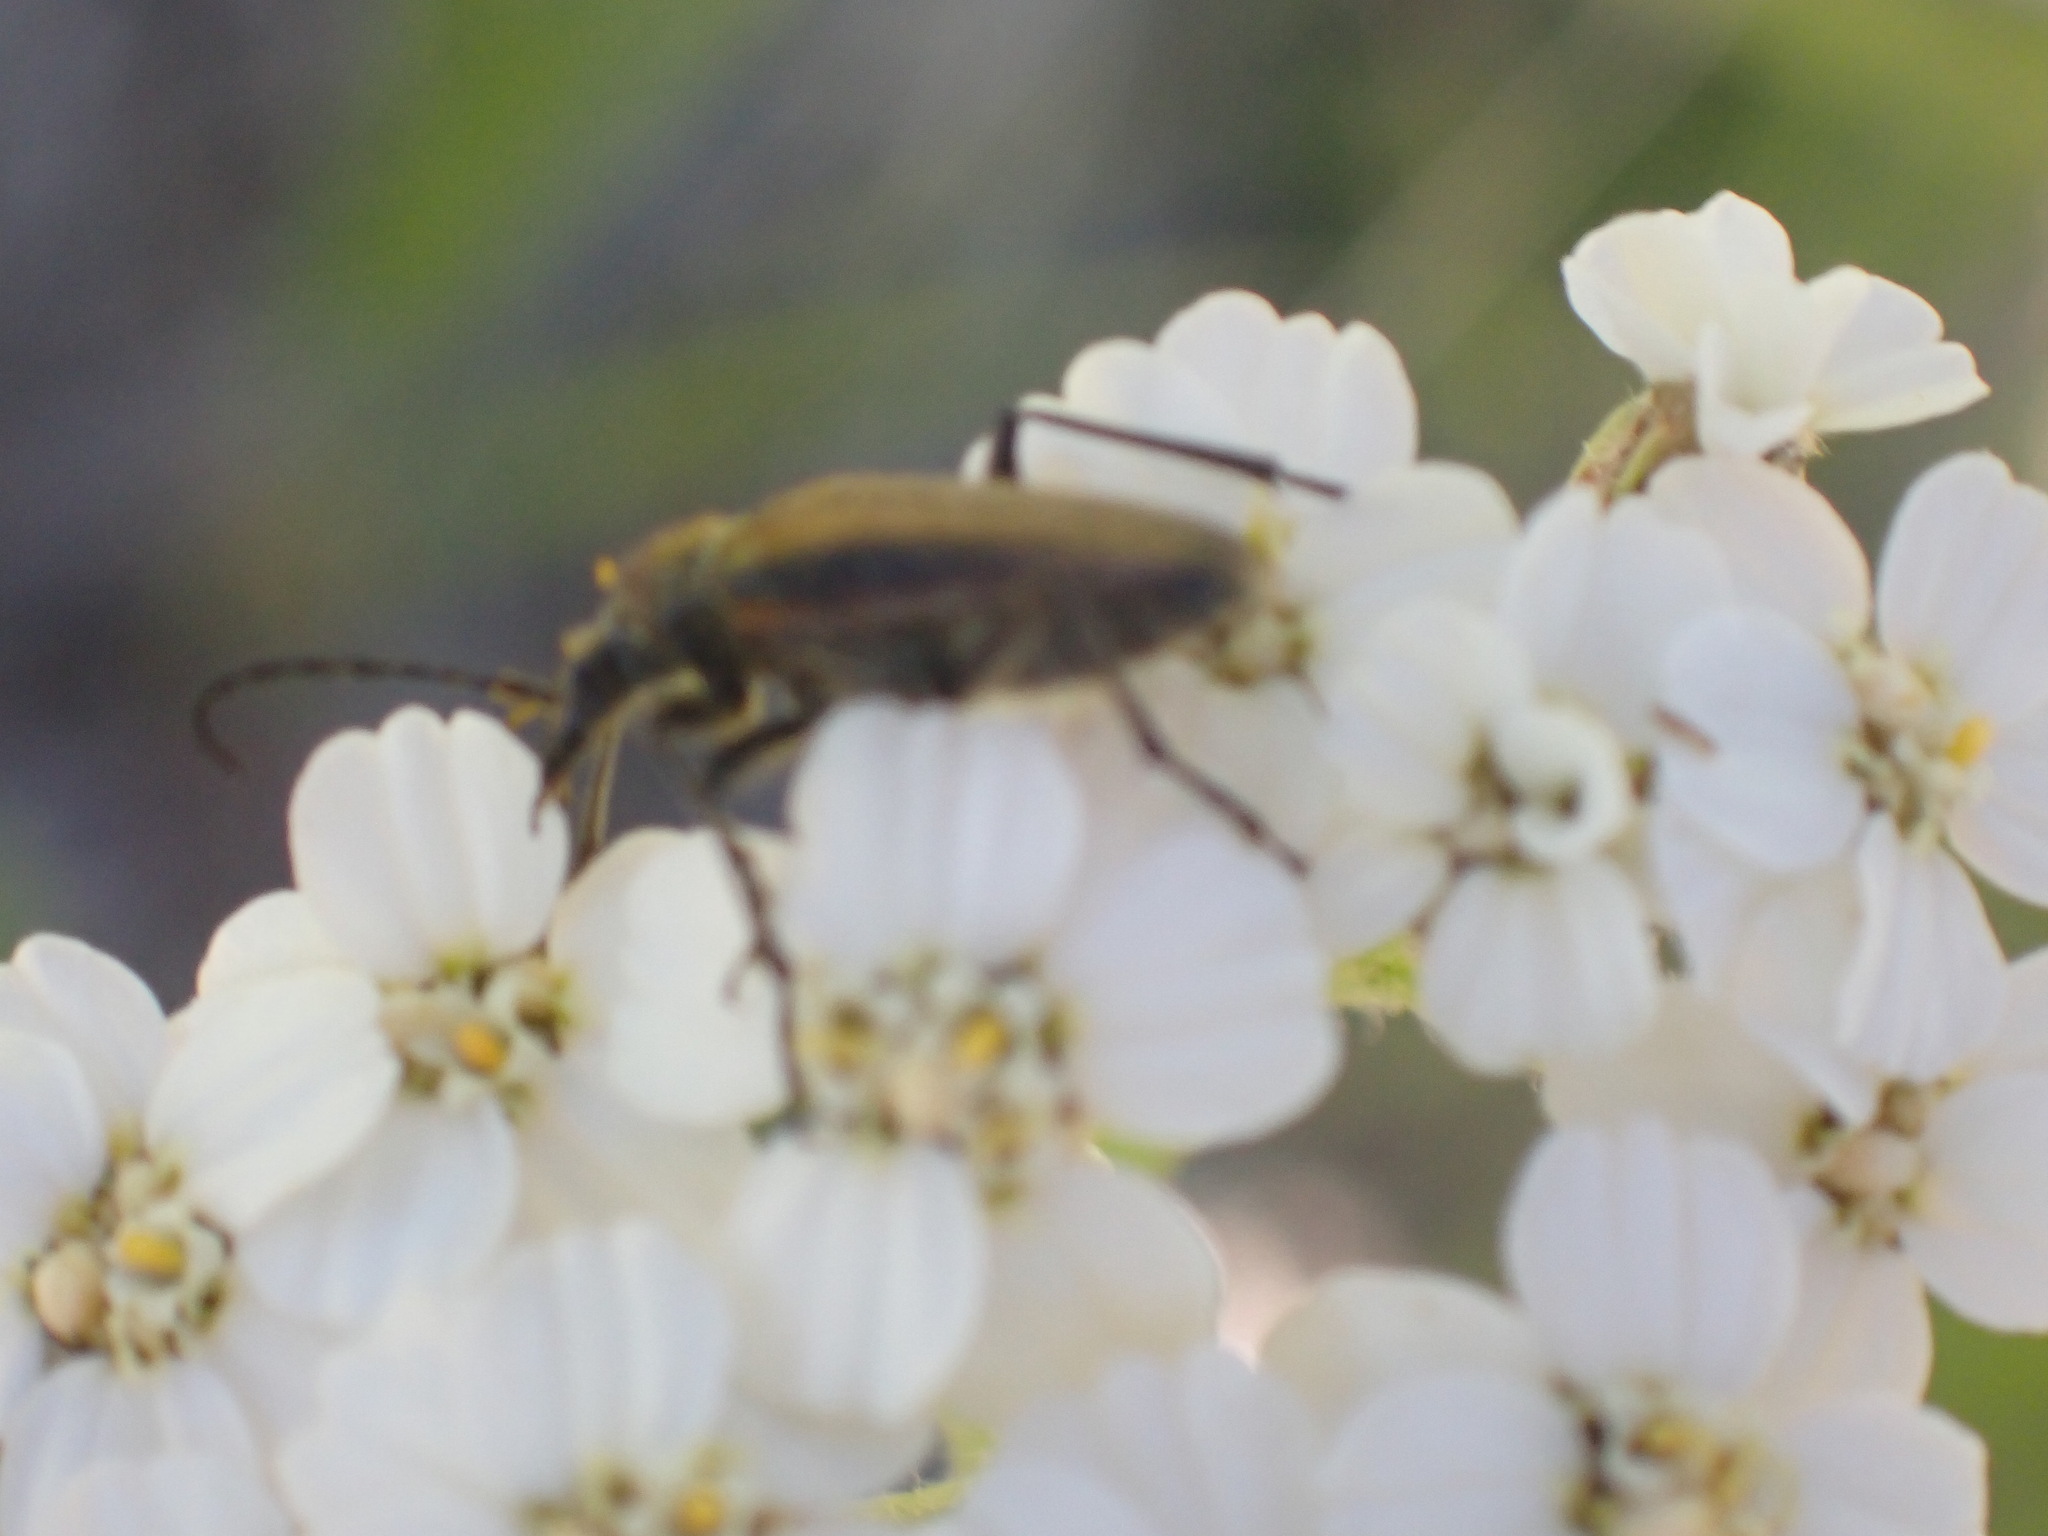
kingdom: Animalia
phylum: Arthropoda
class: Insecta
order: Coleoptera
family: Cerambycidae
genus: Cosmosalia
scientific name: Cosmosalia chrysocoma
